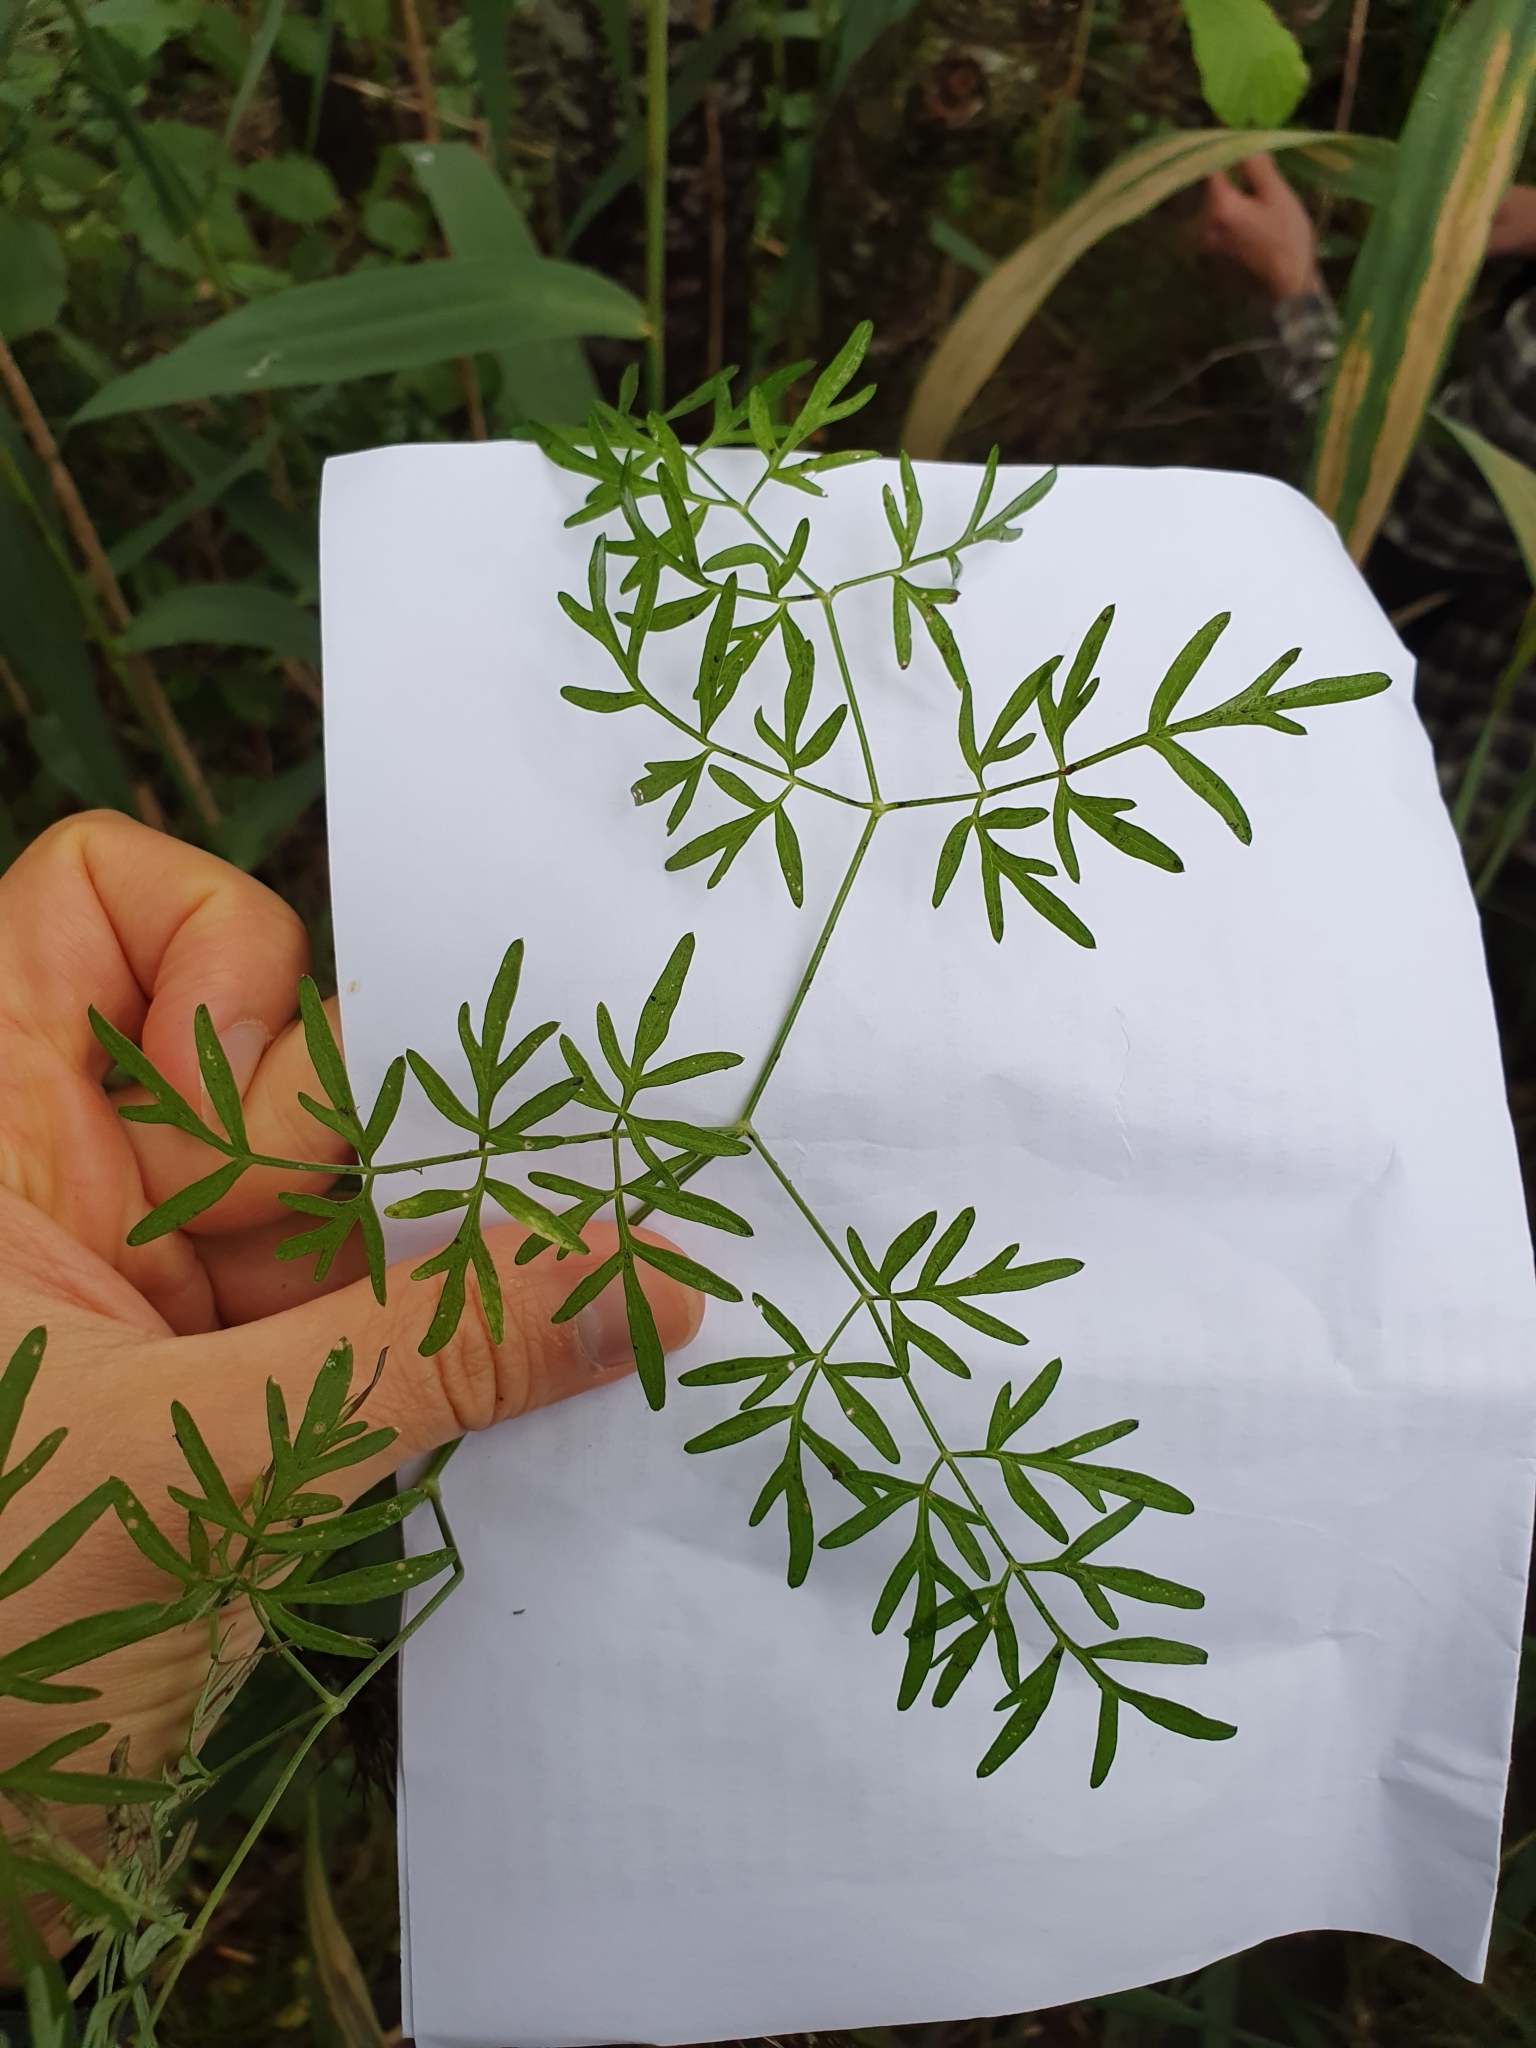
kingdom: Plantae
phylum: Tracheophyta
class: Magnoliopsida
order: Apiales
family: Apiaceae
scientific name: Apiaceae
